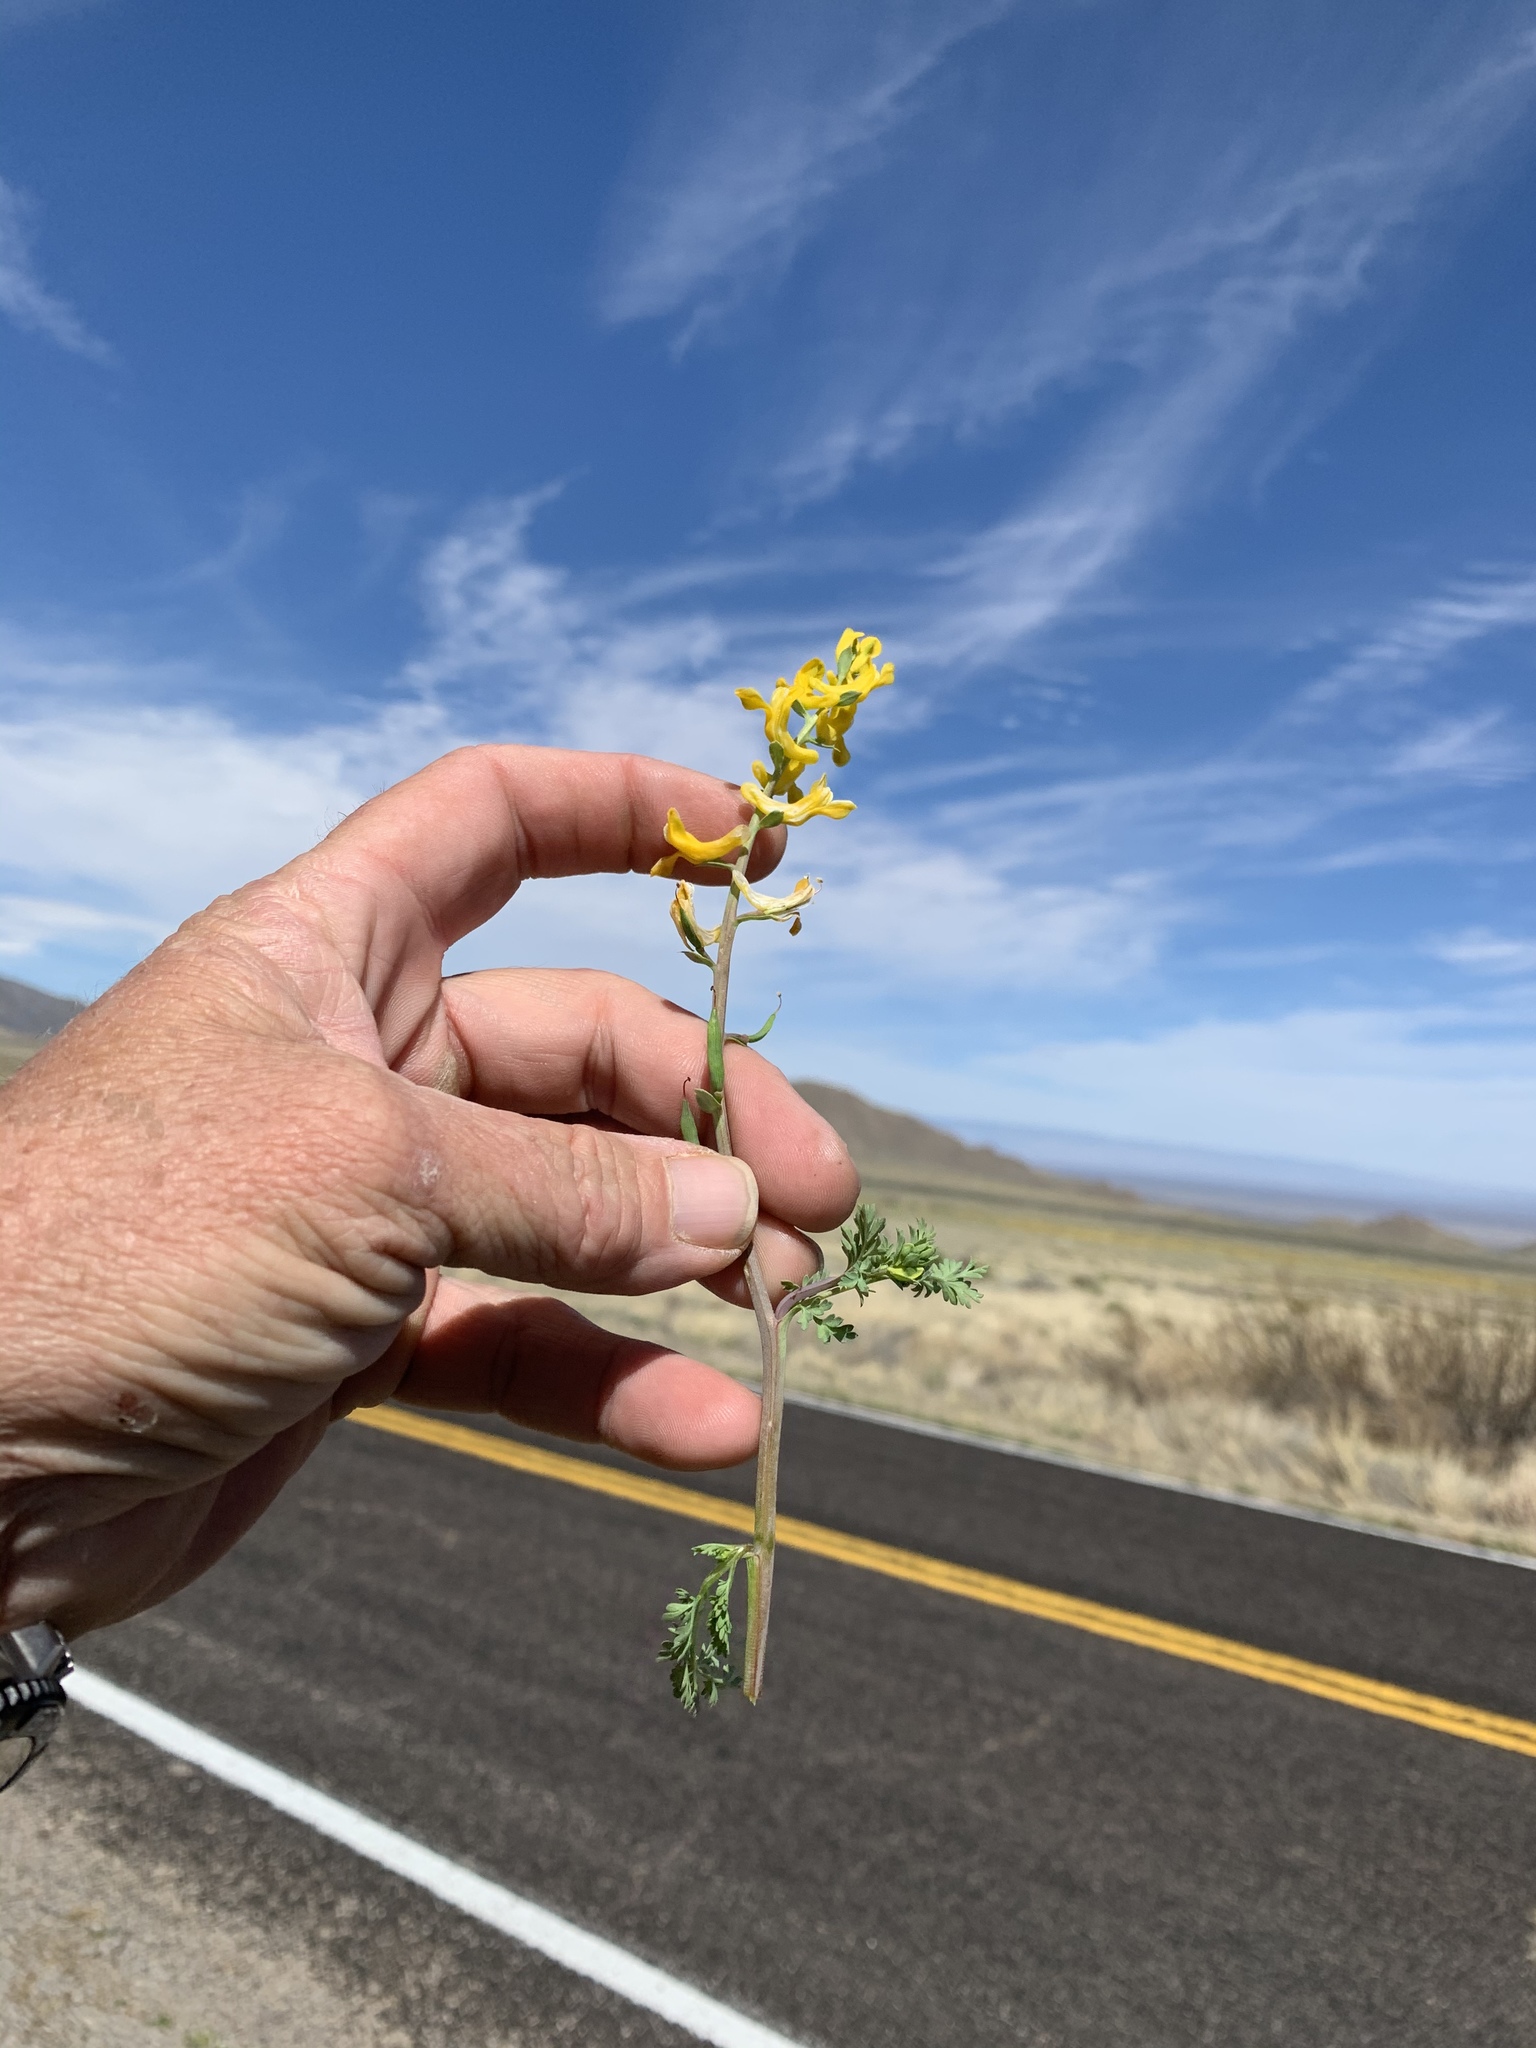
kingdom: Plantae
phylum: Tracheophyta
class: Magnoliopsida
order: Ranunculales
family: Papaveraceae
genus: Corydalis
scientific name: Corydalis aurea
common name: Golden corydalis
